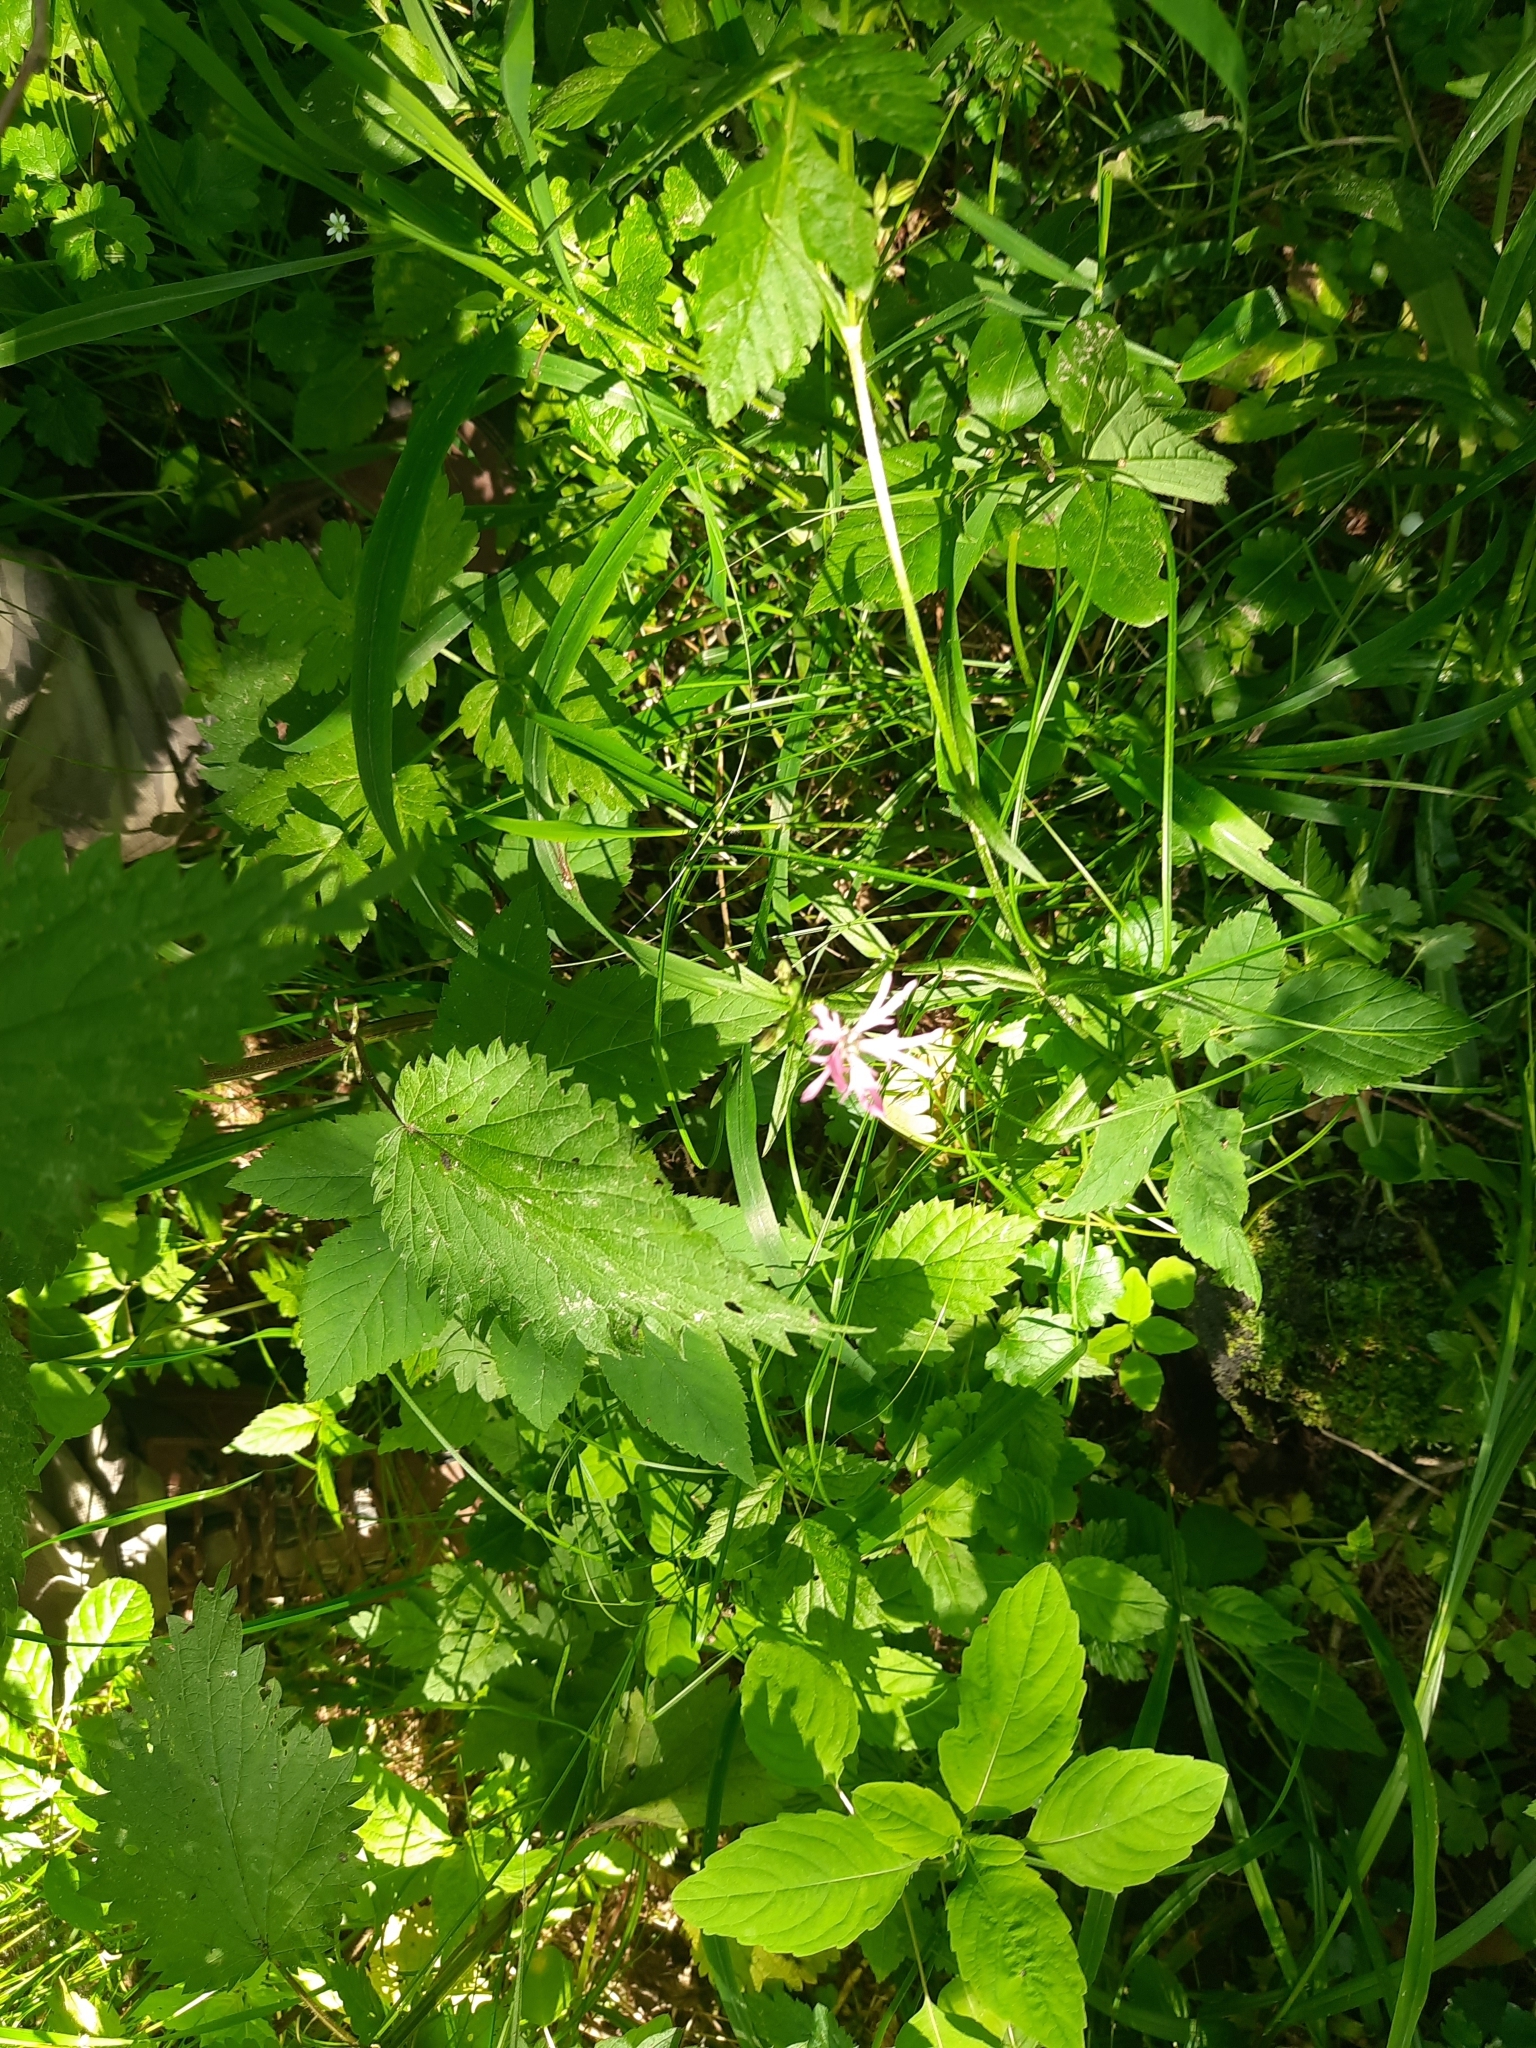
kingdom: Plantae
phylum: Tracheophyta
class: Magnoliopsida
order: Caryophyllales
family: Caryophyllaceae
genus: Silene
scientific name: Silene flos-cuculi
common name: Ragged-robin
